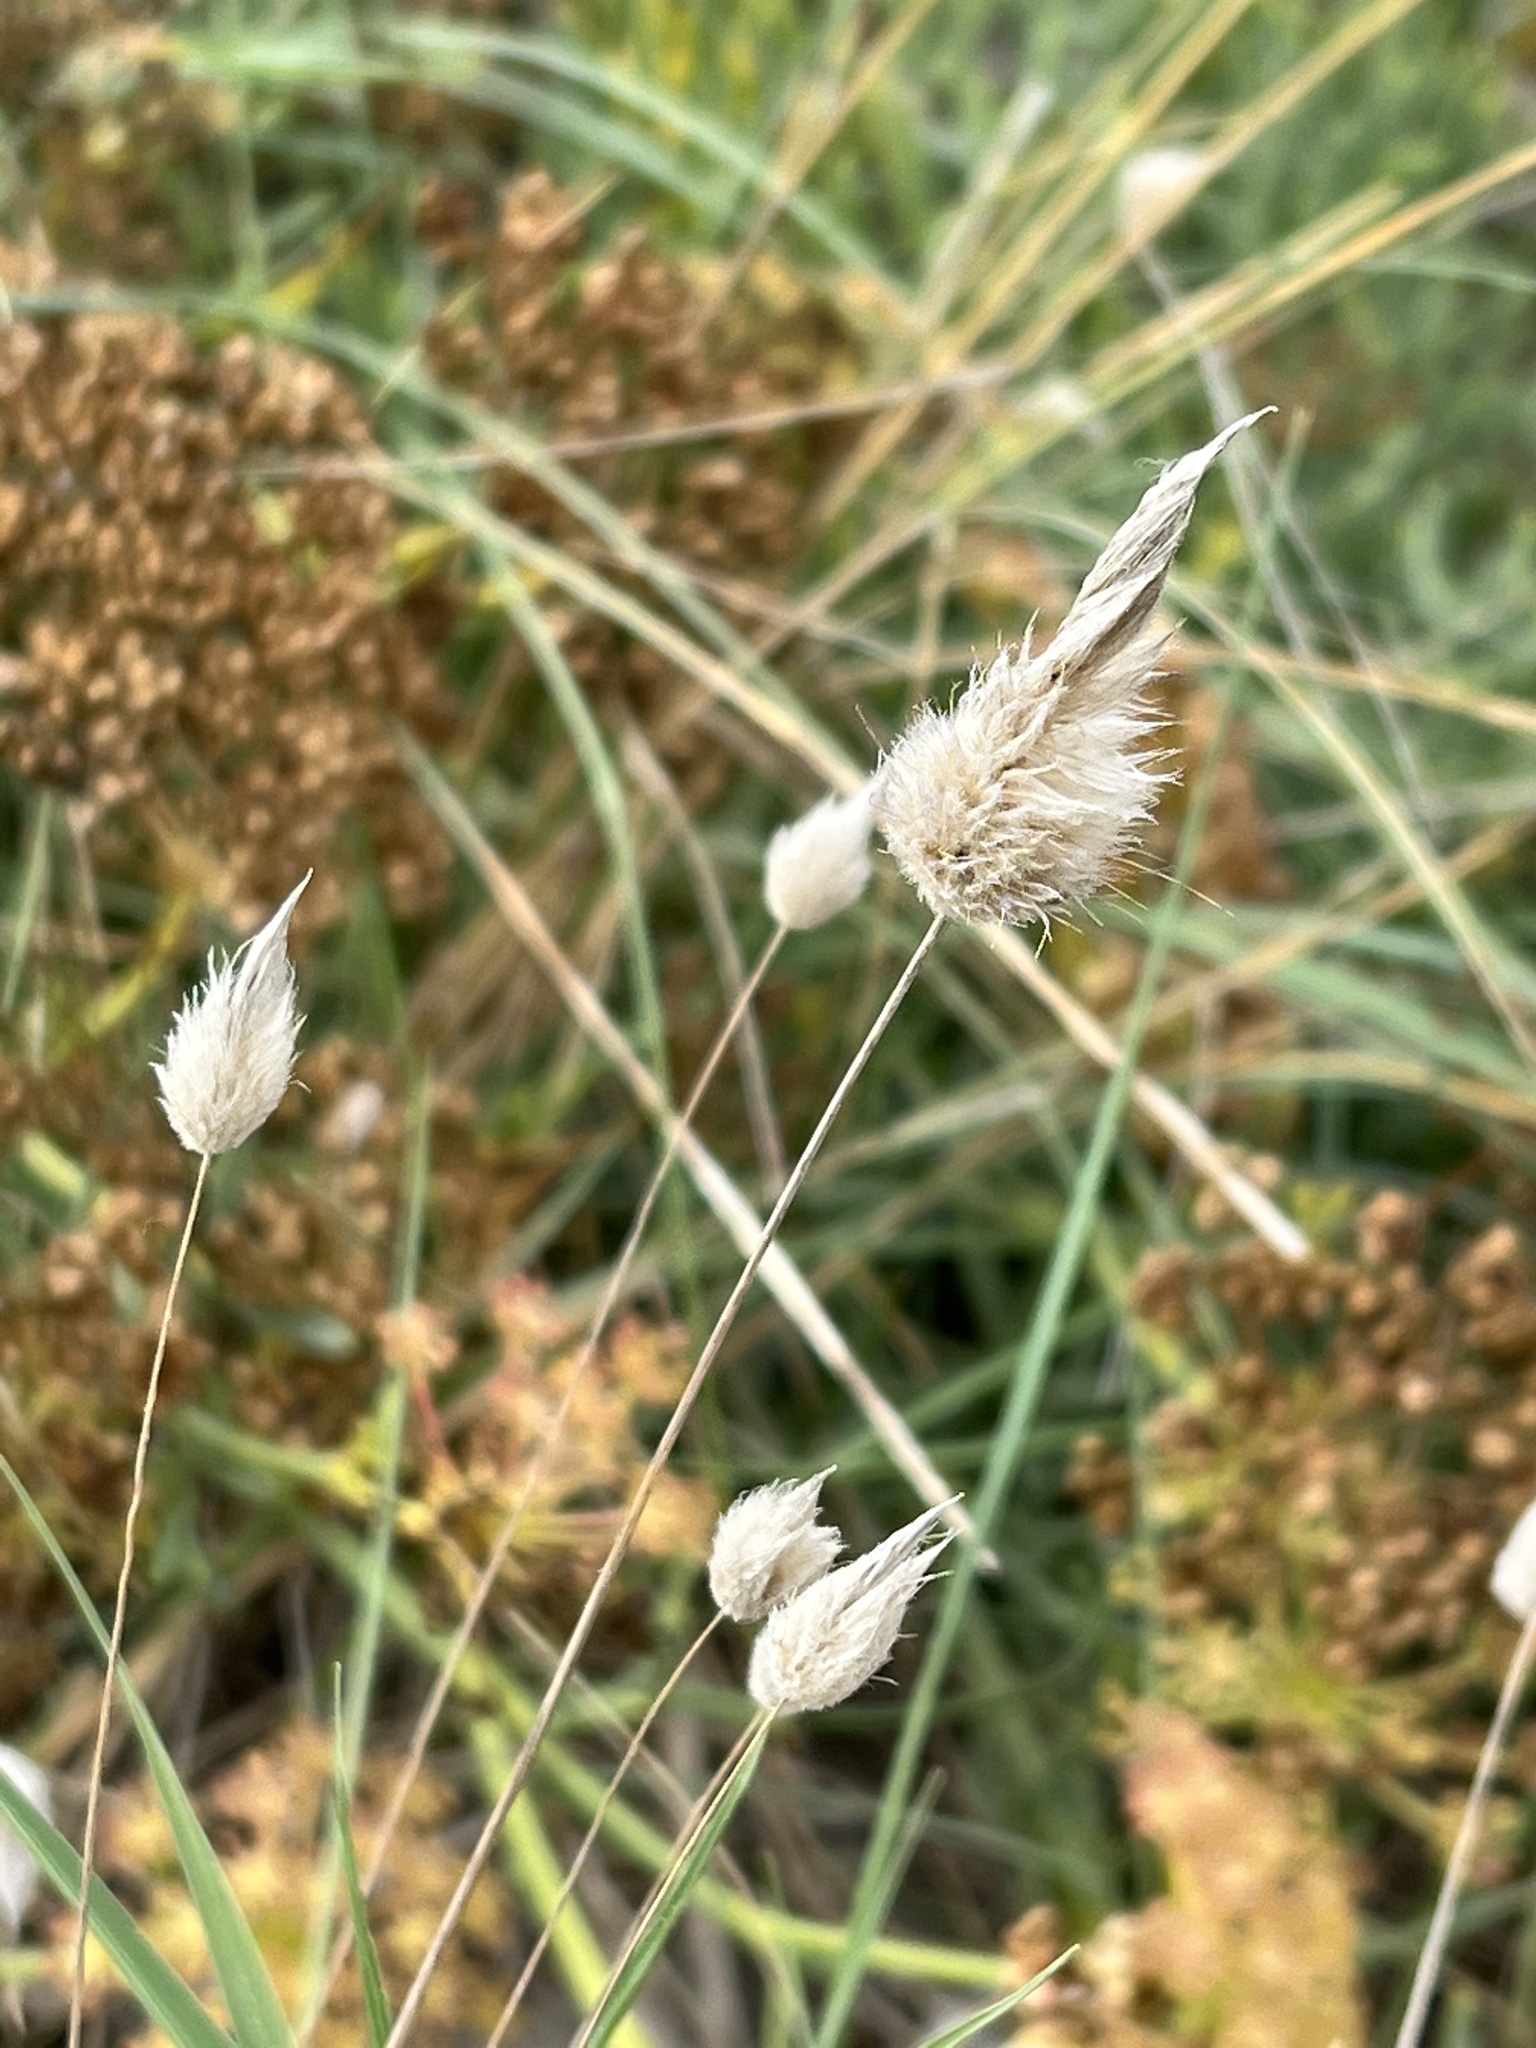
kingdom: Plantae
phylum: Tracheophyta
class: Liliopsida
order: Poales
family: Poaceae
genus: Lagurus
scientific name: Lagurus ovatus
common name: Hare's-tail
